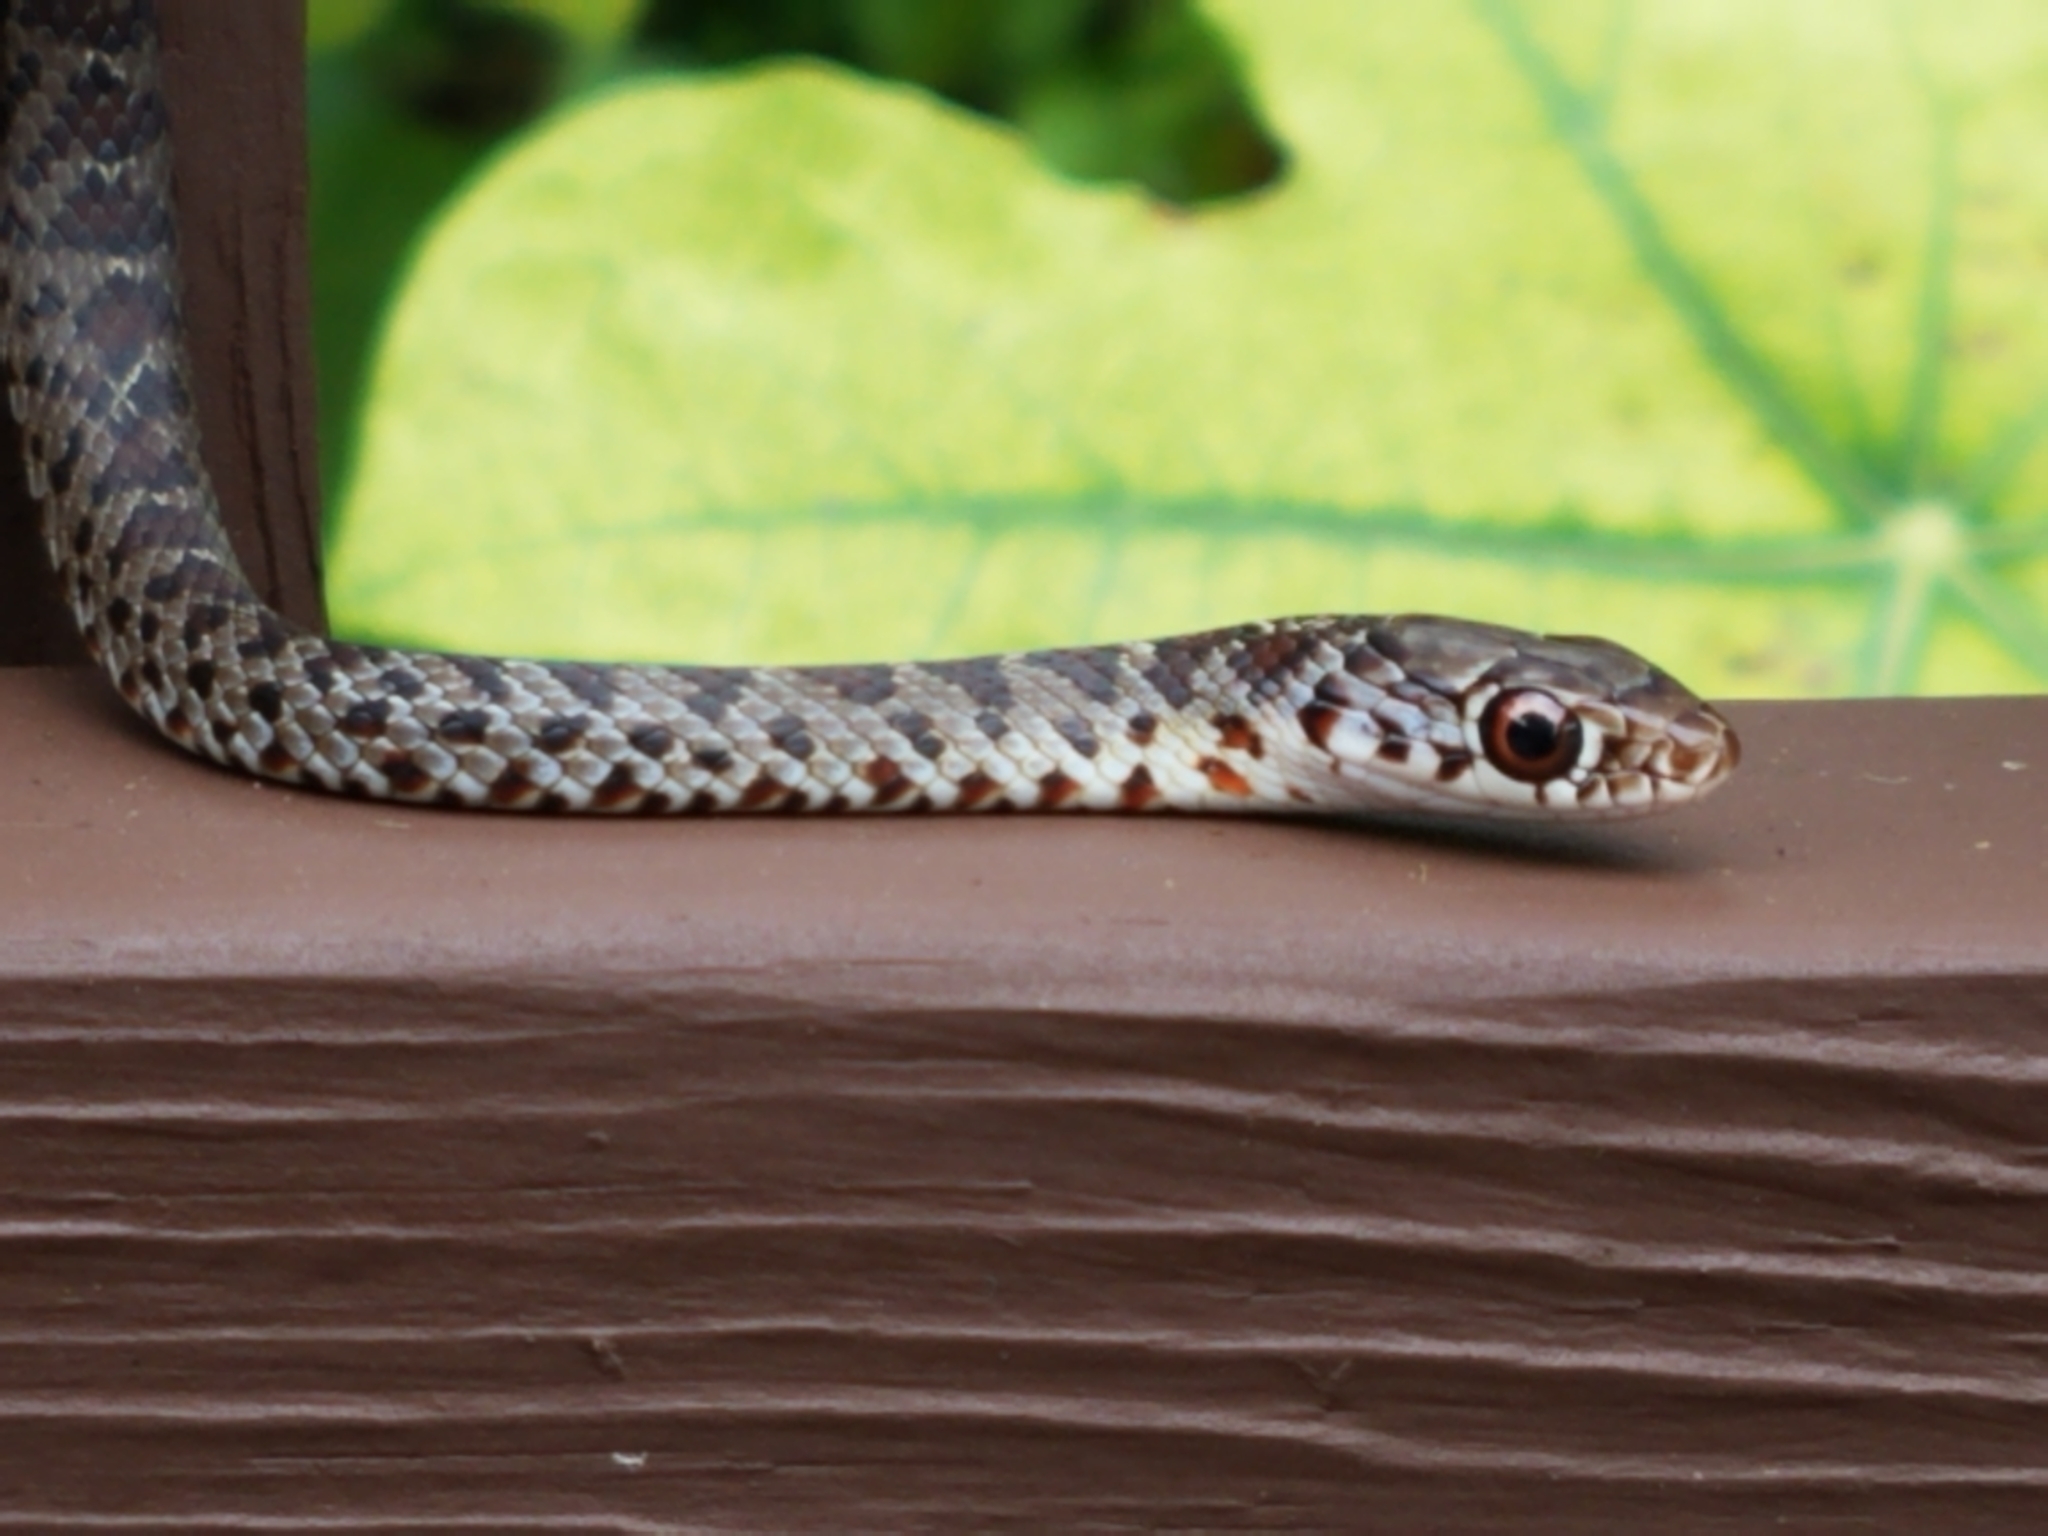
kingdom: Animalia
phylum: Chordata
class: Squamata
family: Colubridae
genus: Coluber
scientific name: Coluber constrictor
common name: Eastern racer
